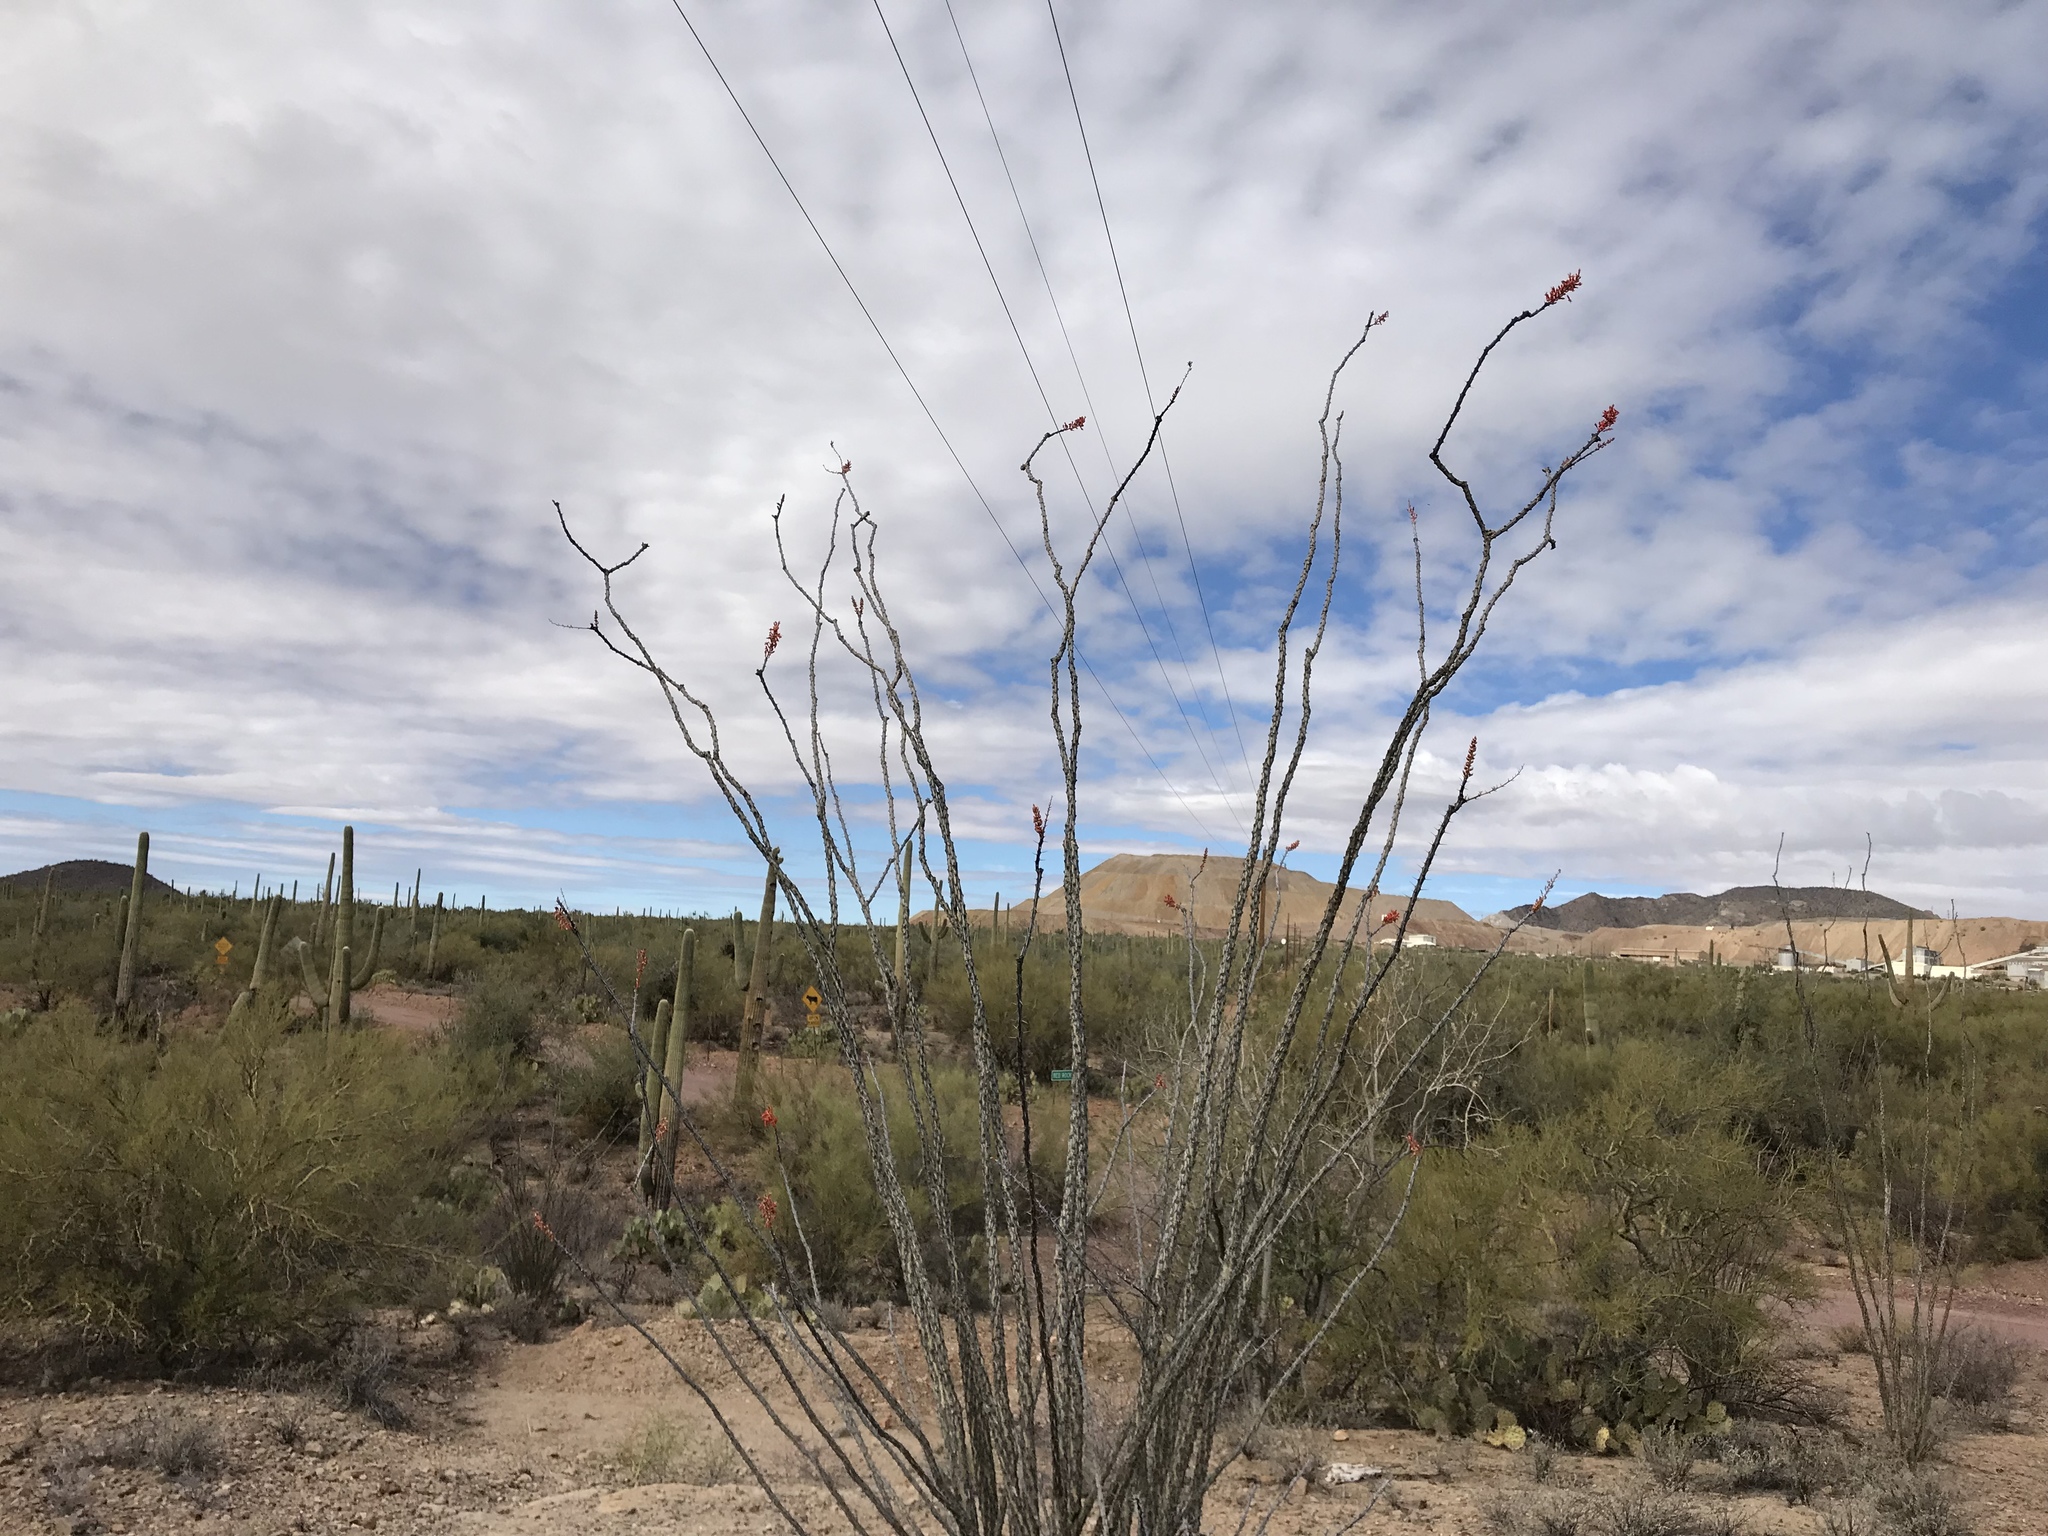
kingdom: Plantae
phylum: Tracheophyta
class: Magnoliopsida
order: Ericales
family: Fouquieriaceae
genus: Fouquieria
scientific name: Fouquieria splendens
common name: Vine-cactus
